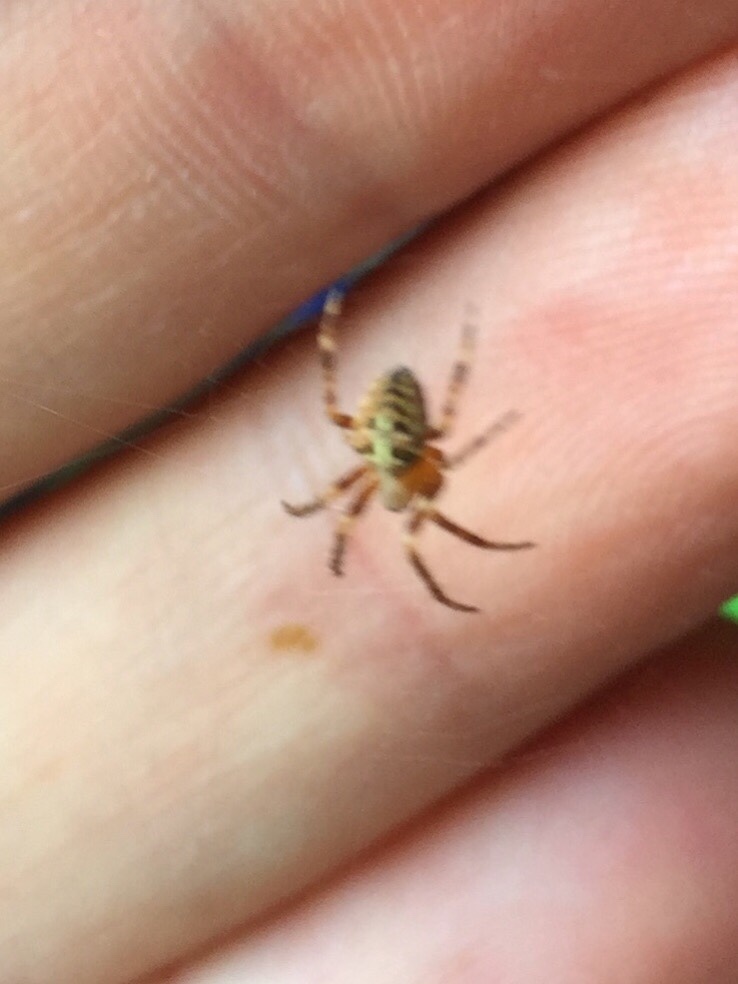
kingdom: Animalia
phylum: Arthropoda
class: Arachnida
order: Araneae
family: Araneidae
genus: Araneus
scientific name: Araneus diadematus
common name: Cross orbweaver
